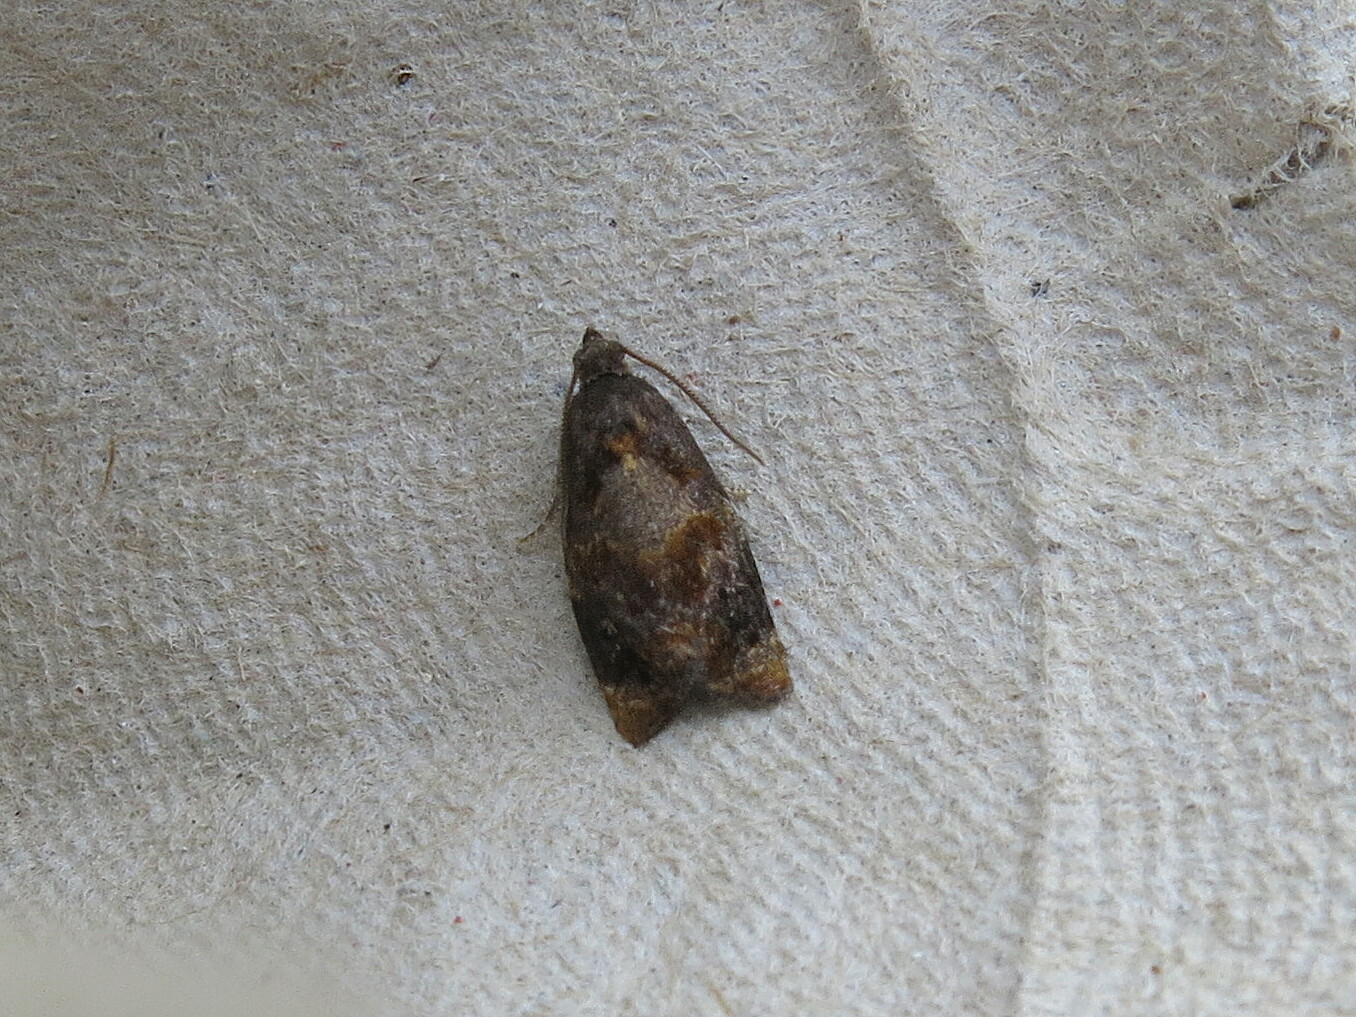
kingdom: Animalia
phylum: Arthropoda
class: Insecta
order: Lepidoptera
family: Tortricidae
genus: Ditula
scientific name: Ditula angustiorana
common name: Red-barred tortrix
